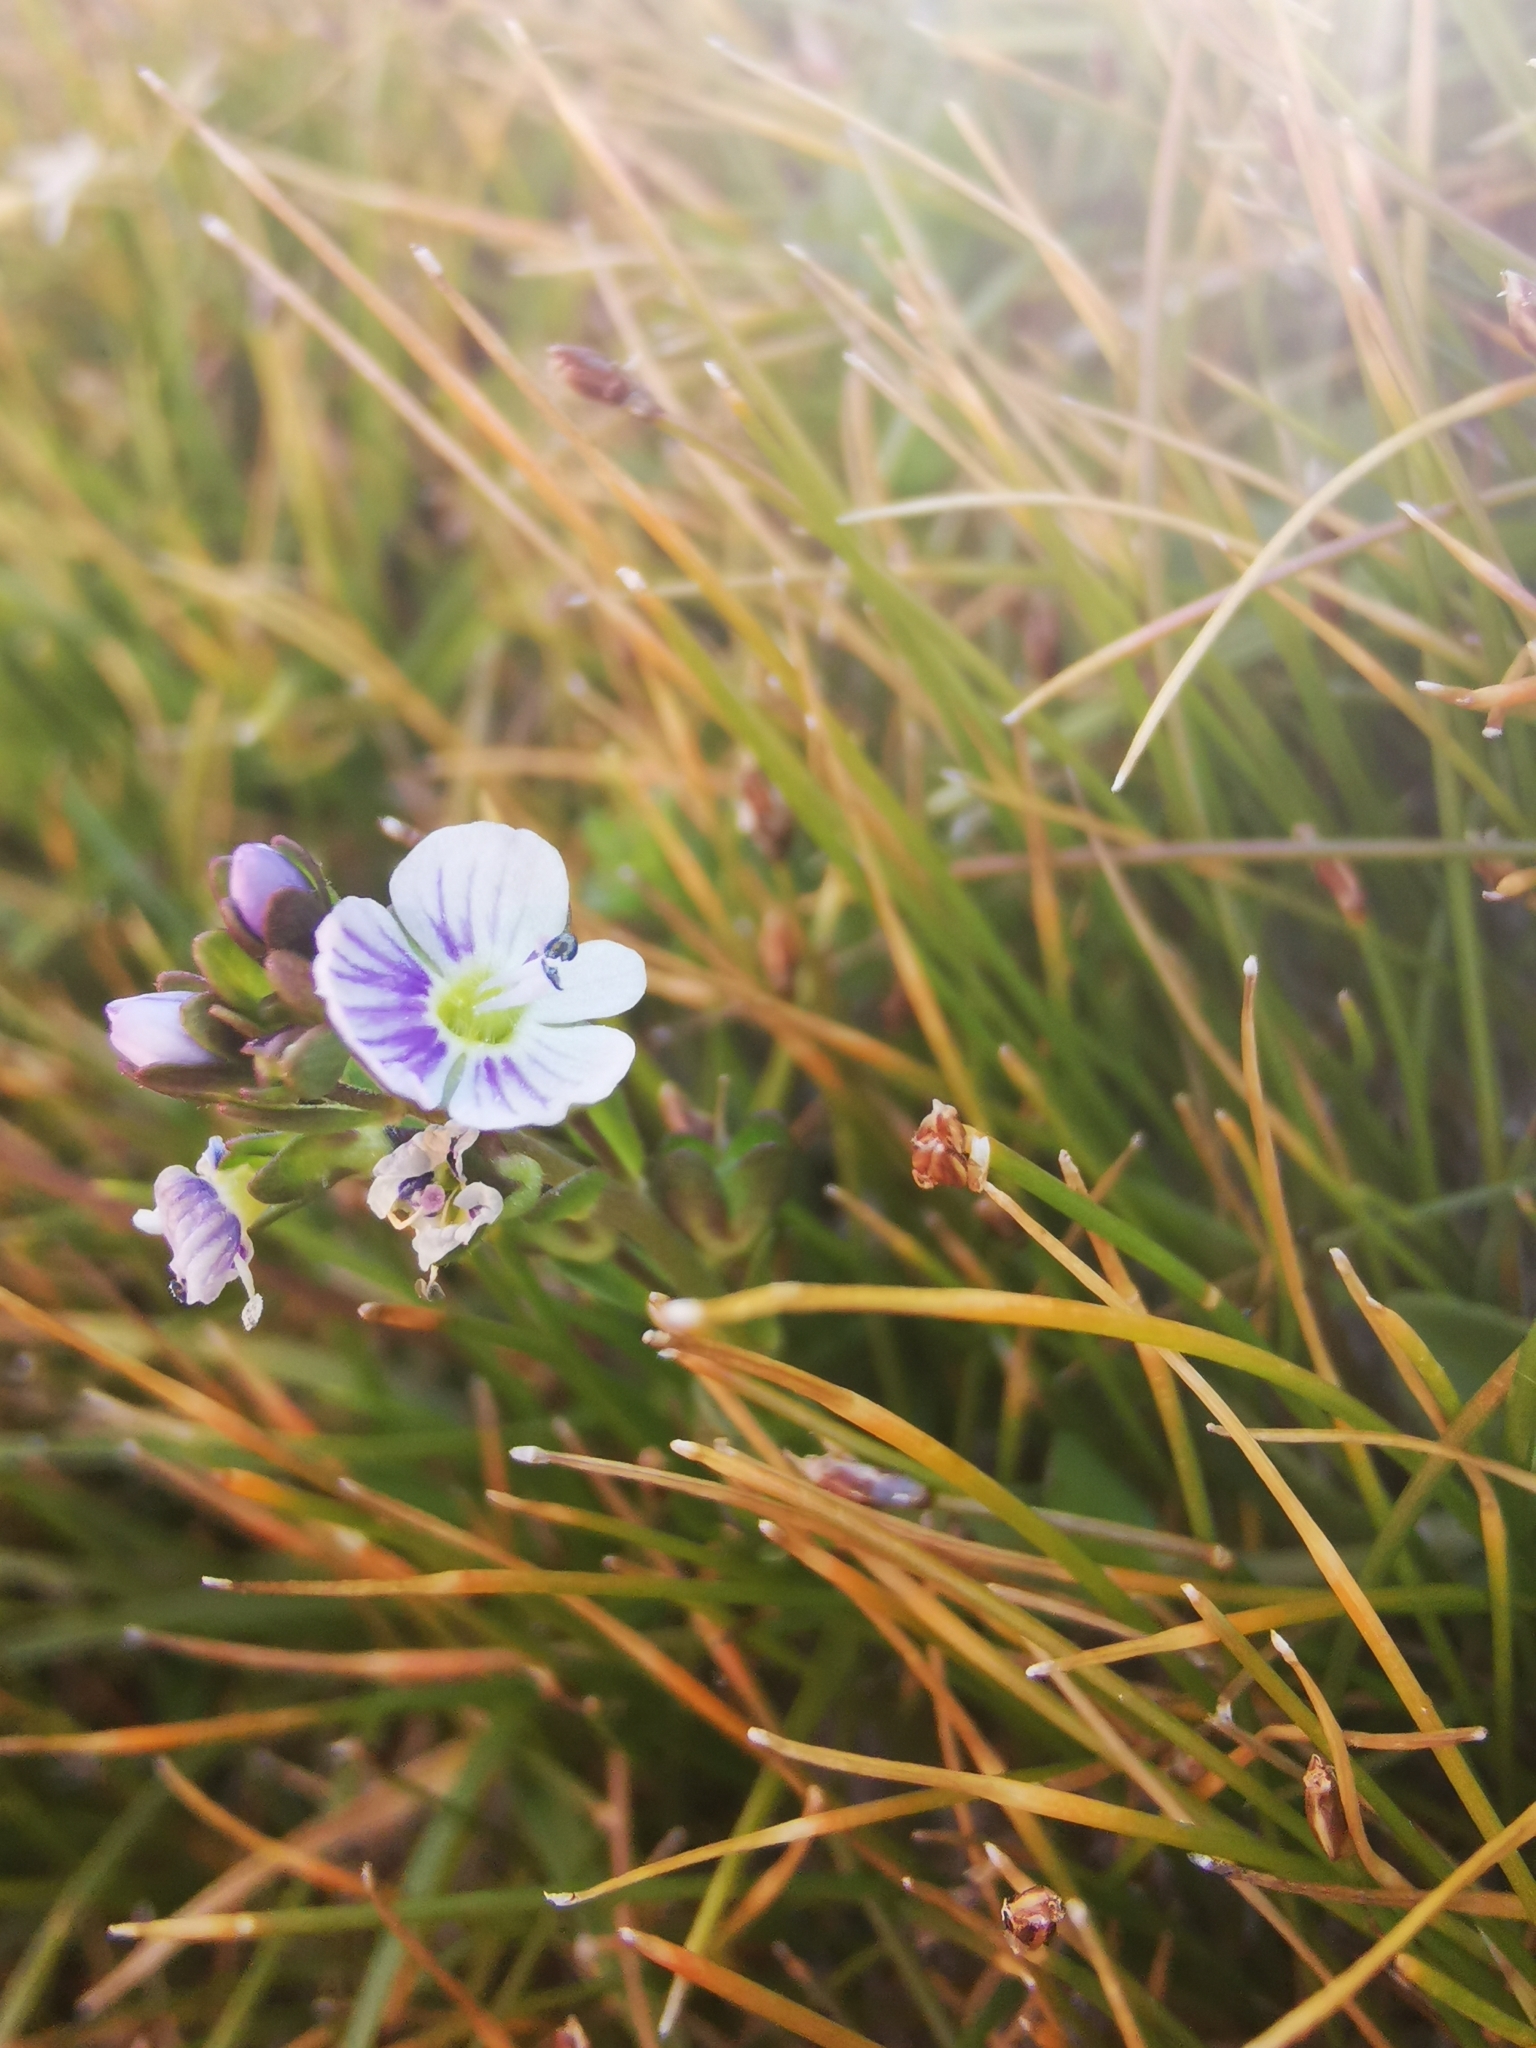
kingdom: Plantae
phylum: Tracheophyta
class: Magnoliopsida
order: Lamiales
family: Plantaginaceae
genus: Veronica
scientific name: Veronica serpyllifolia
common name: Thyme-leaved speedwell
